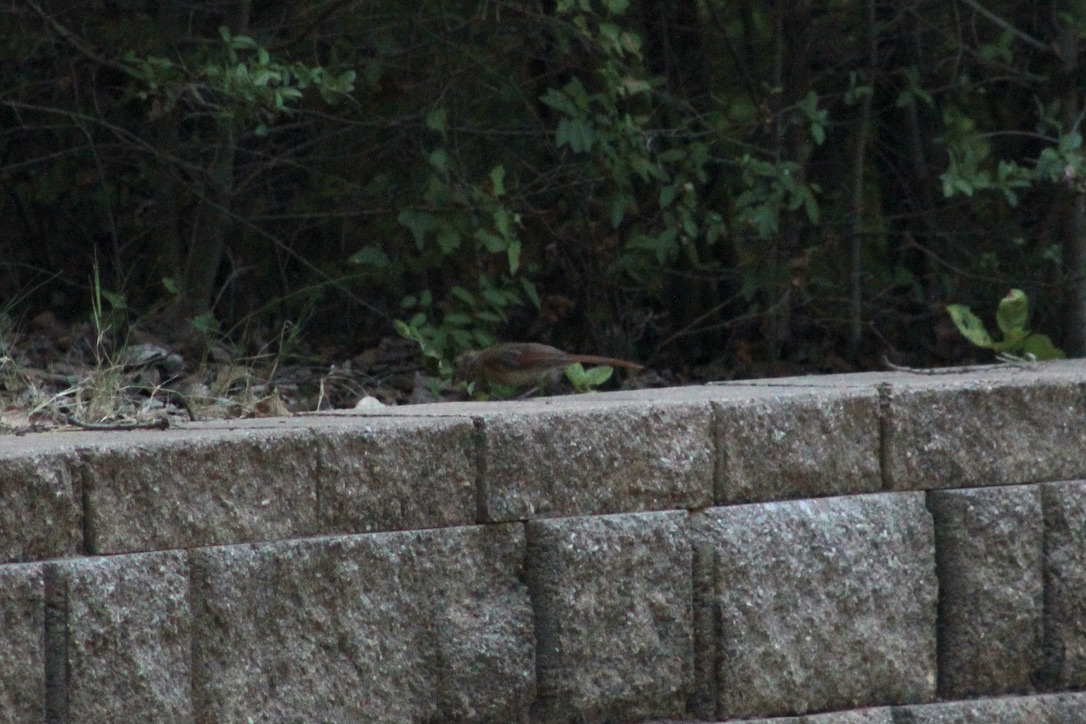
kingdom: Animalia
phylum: Chordata
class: Aves
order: Passeriformes
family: Cardinalidae
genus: Cardinalis
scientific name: Cardinalis cardinalis
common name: Northern cardinal
